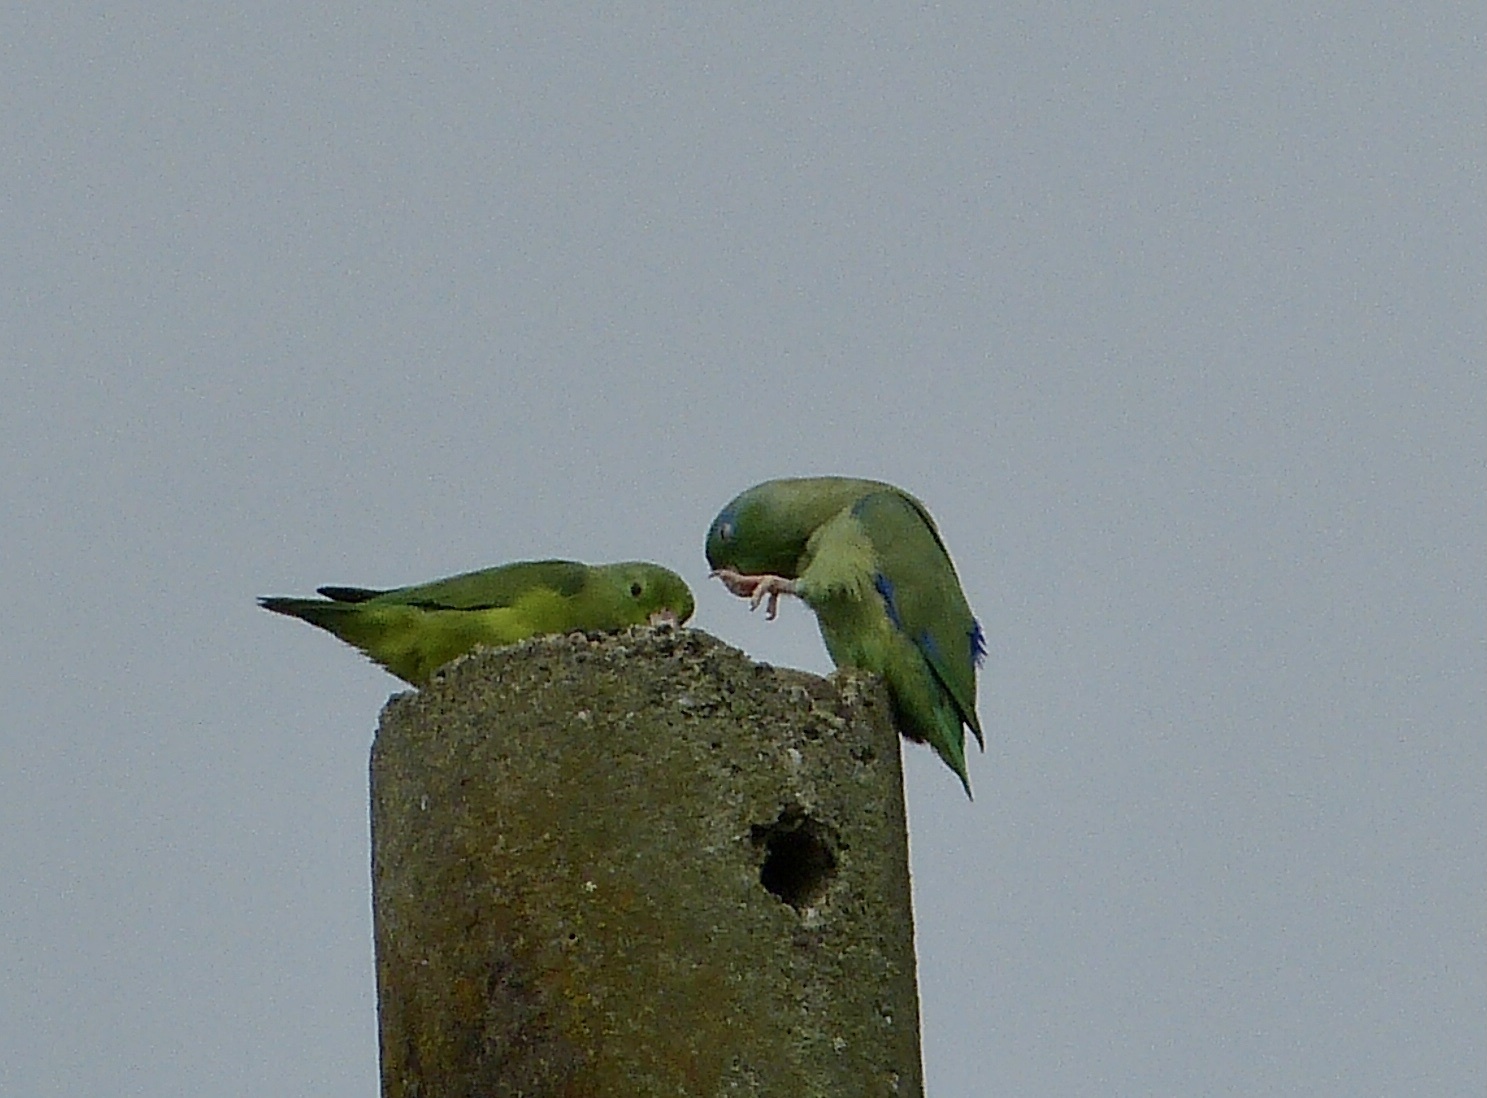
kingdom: Animalia
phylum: Chordata
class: Aves
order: Psittaciformes
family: Psittacidae
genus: Forpus
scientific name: Forpus conspicillatus
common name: Spectacled parrotlet
